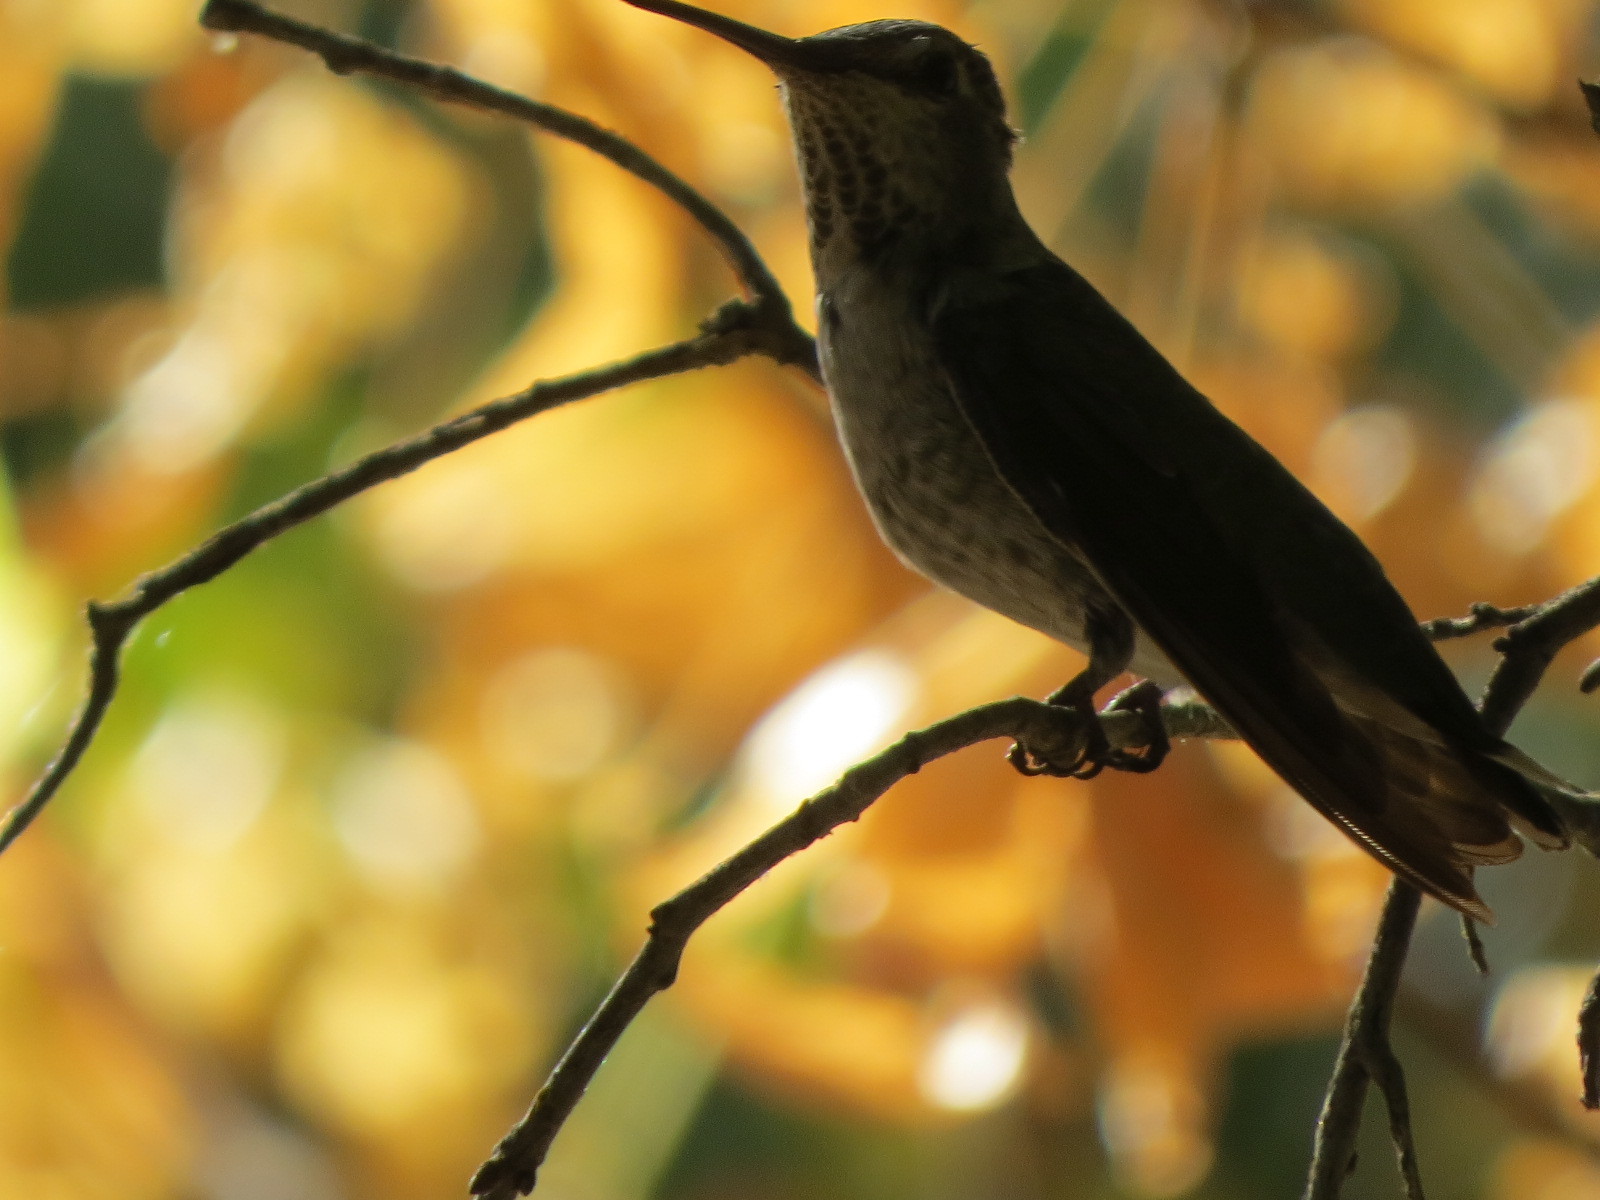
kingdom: Animalia
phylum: Chordata
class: Aves
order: Apodiformes
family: Trochilidae
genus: Calypte
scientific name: Calypte anna
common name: Anna's hummingbird
